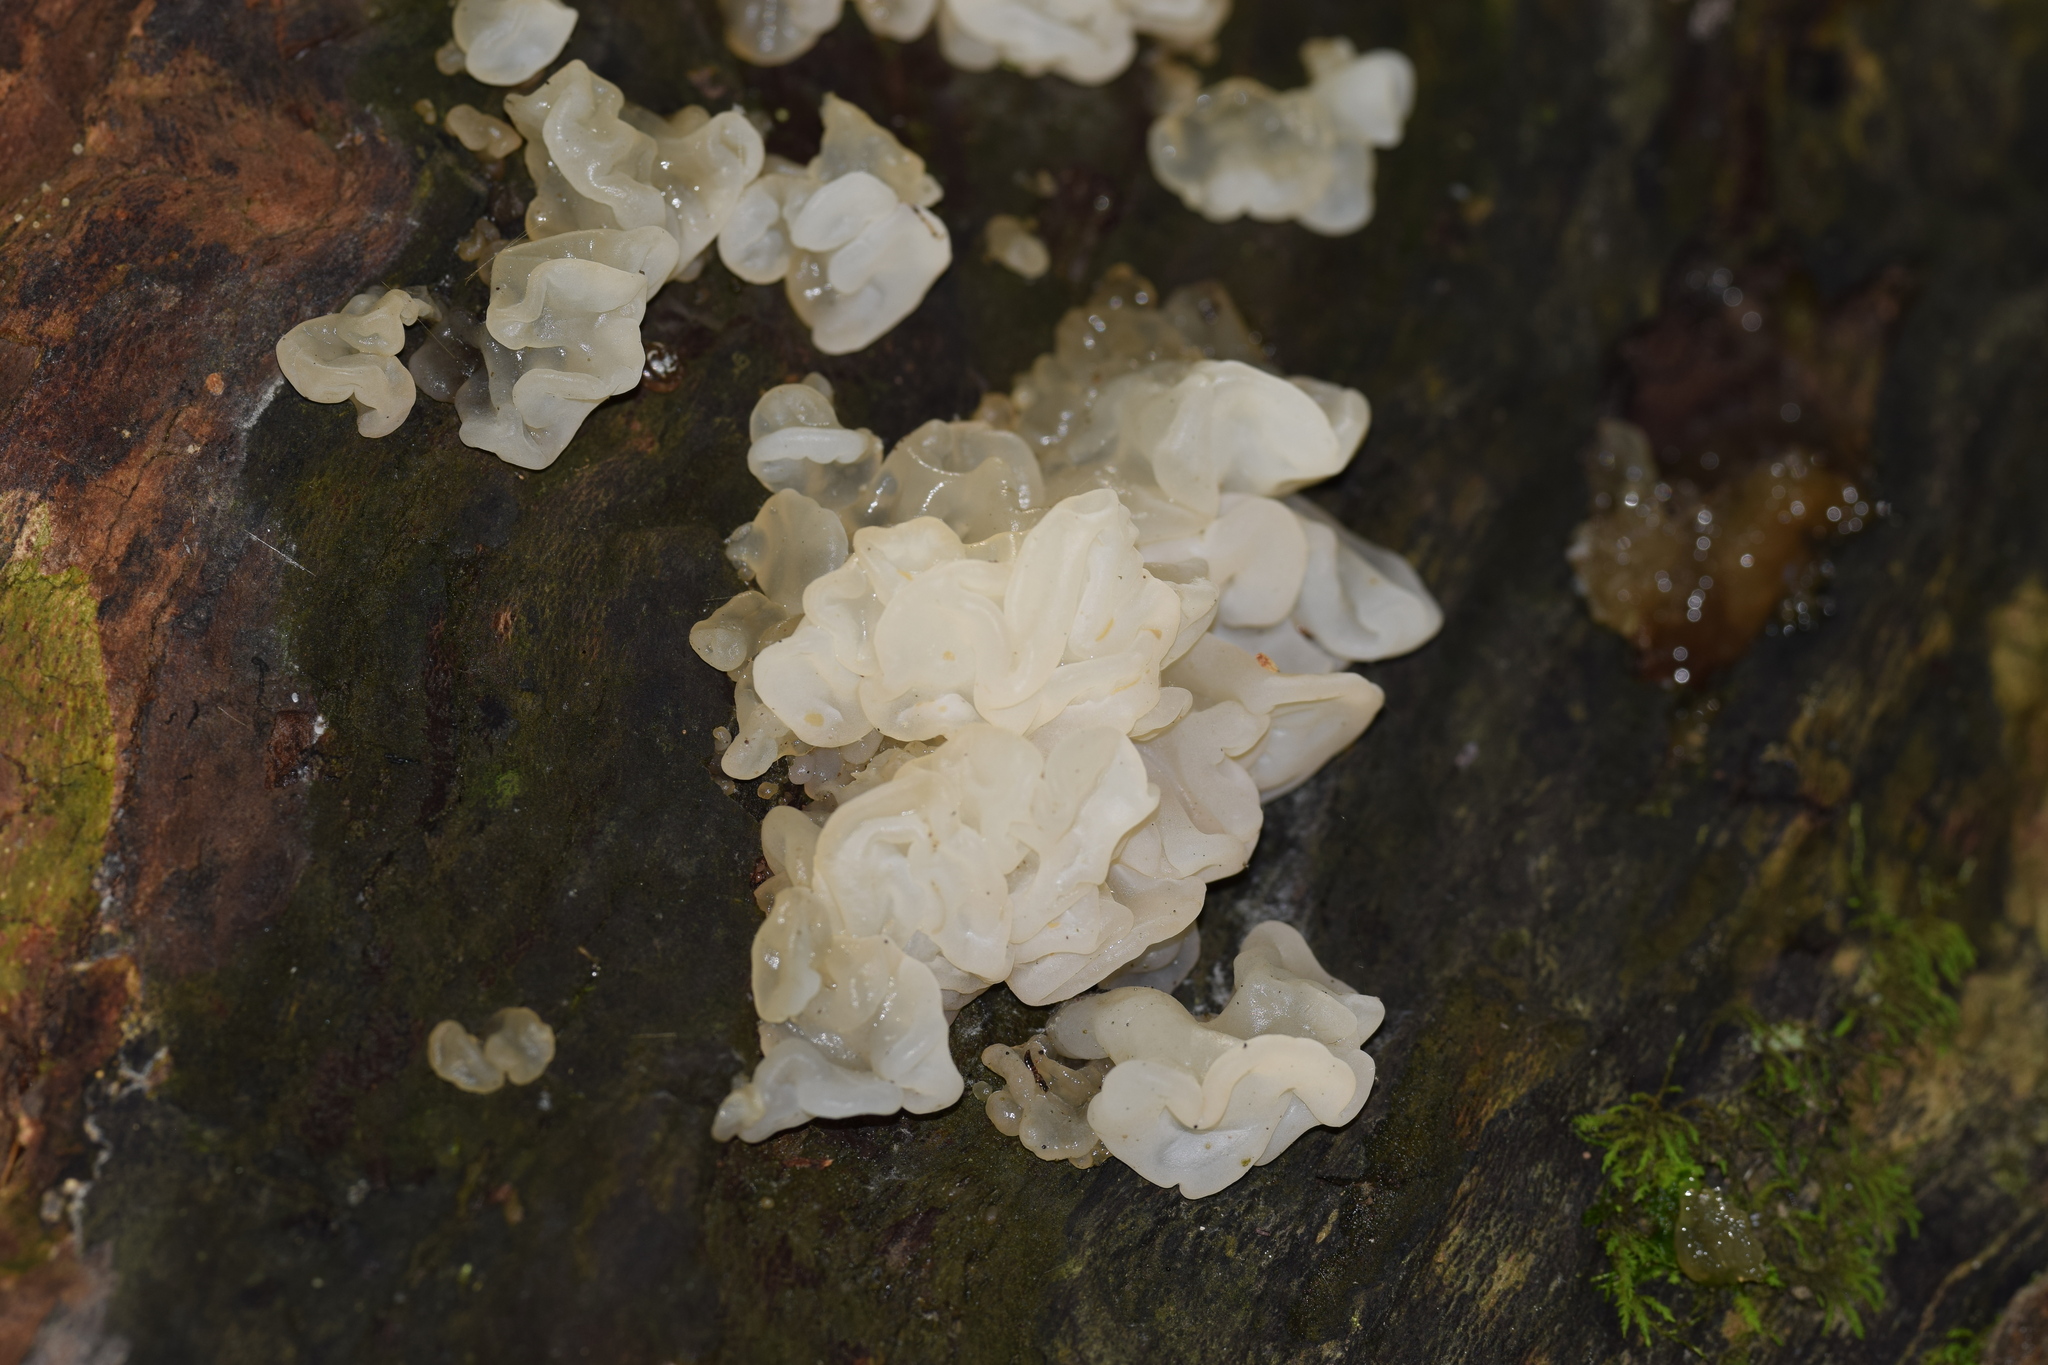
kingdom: Fungi
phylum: Basidiomycota
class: Agaricomycetes
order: Auriculariales
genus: Ductifera
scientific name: Ductifera pululahuana
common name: White jelly fungus
